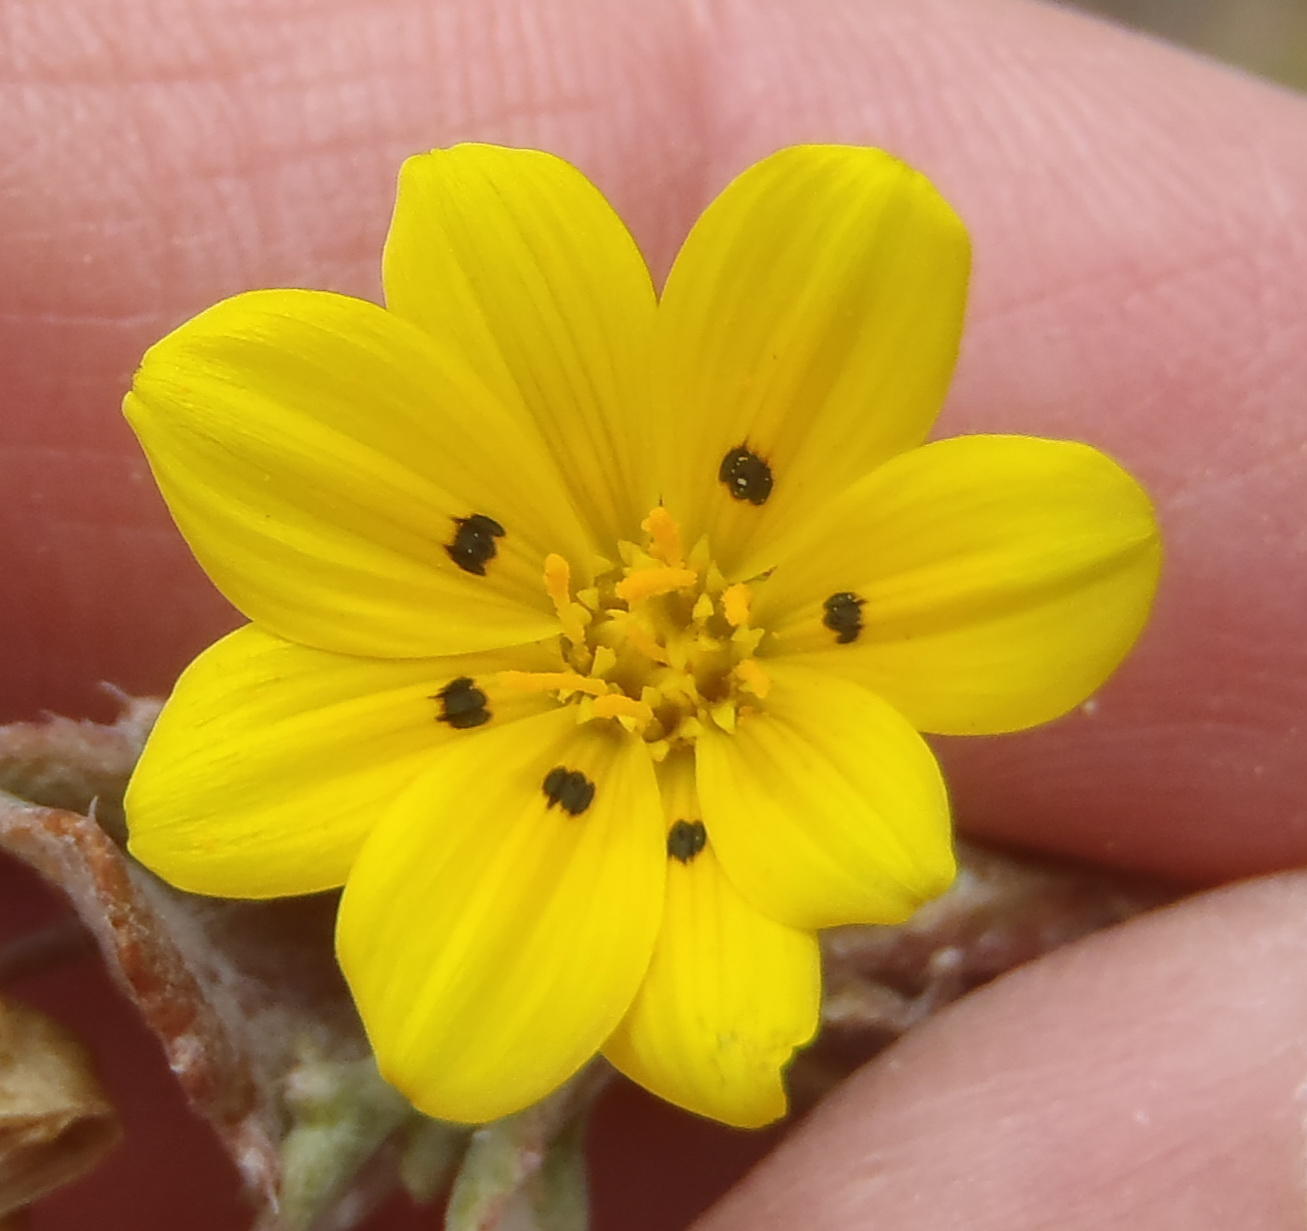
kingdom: Plantae
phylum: Tracheophyta
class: Magnoliopsida
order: Asterales
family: Asteraceae
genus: Gazania
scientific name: Gazania lichtensteinii
